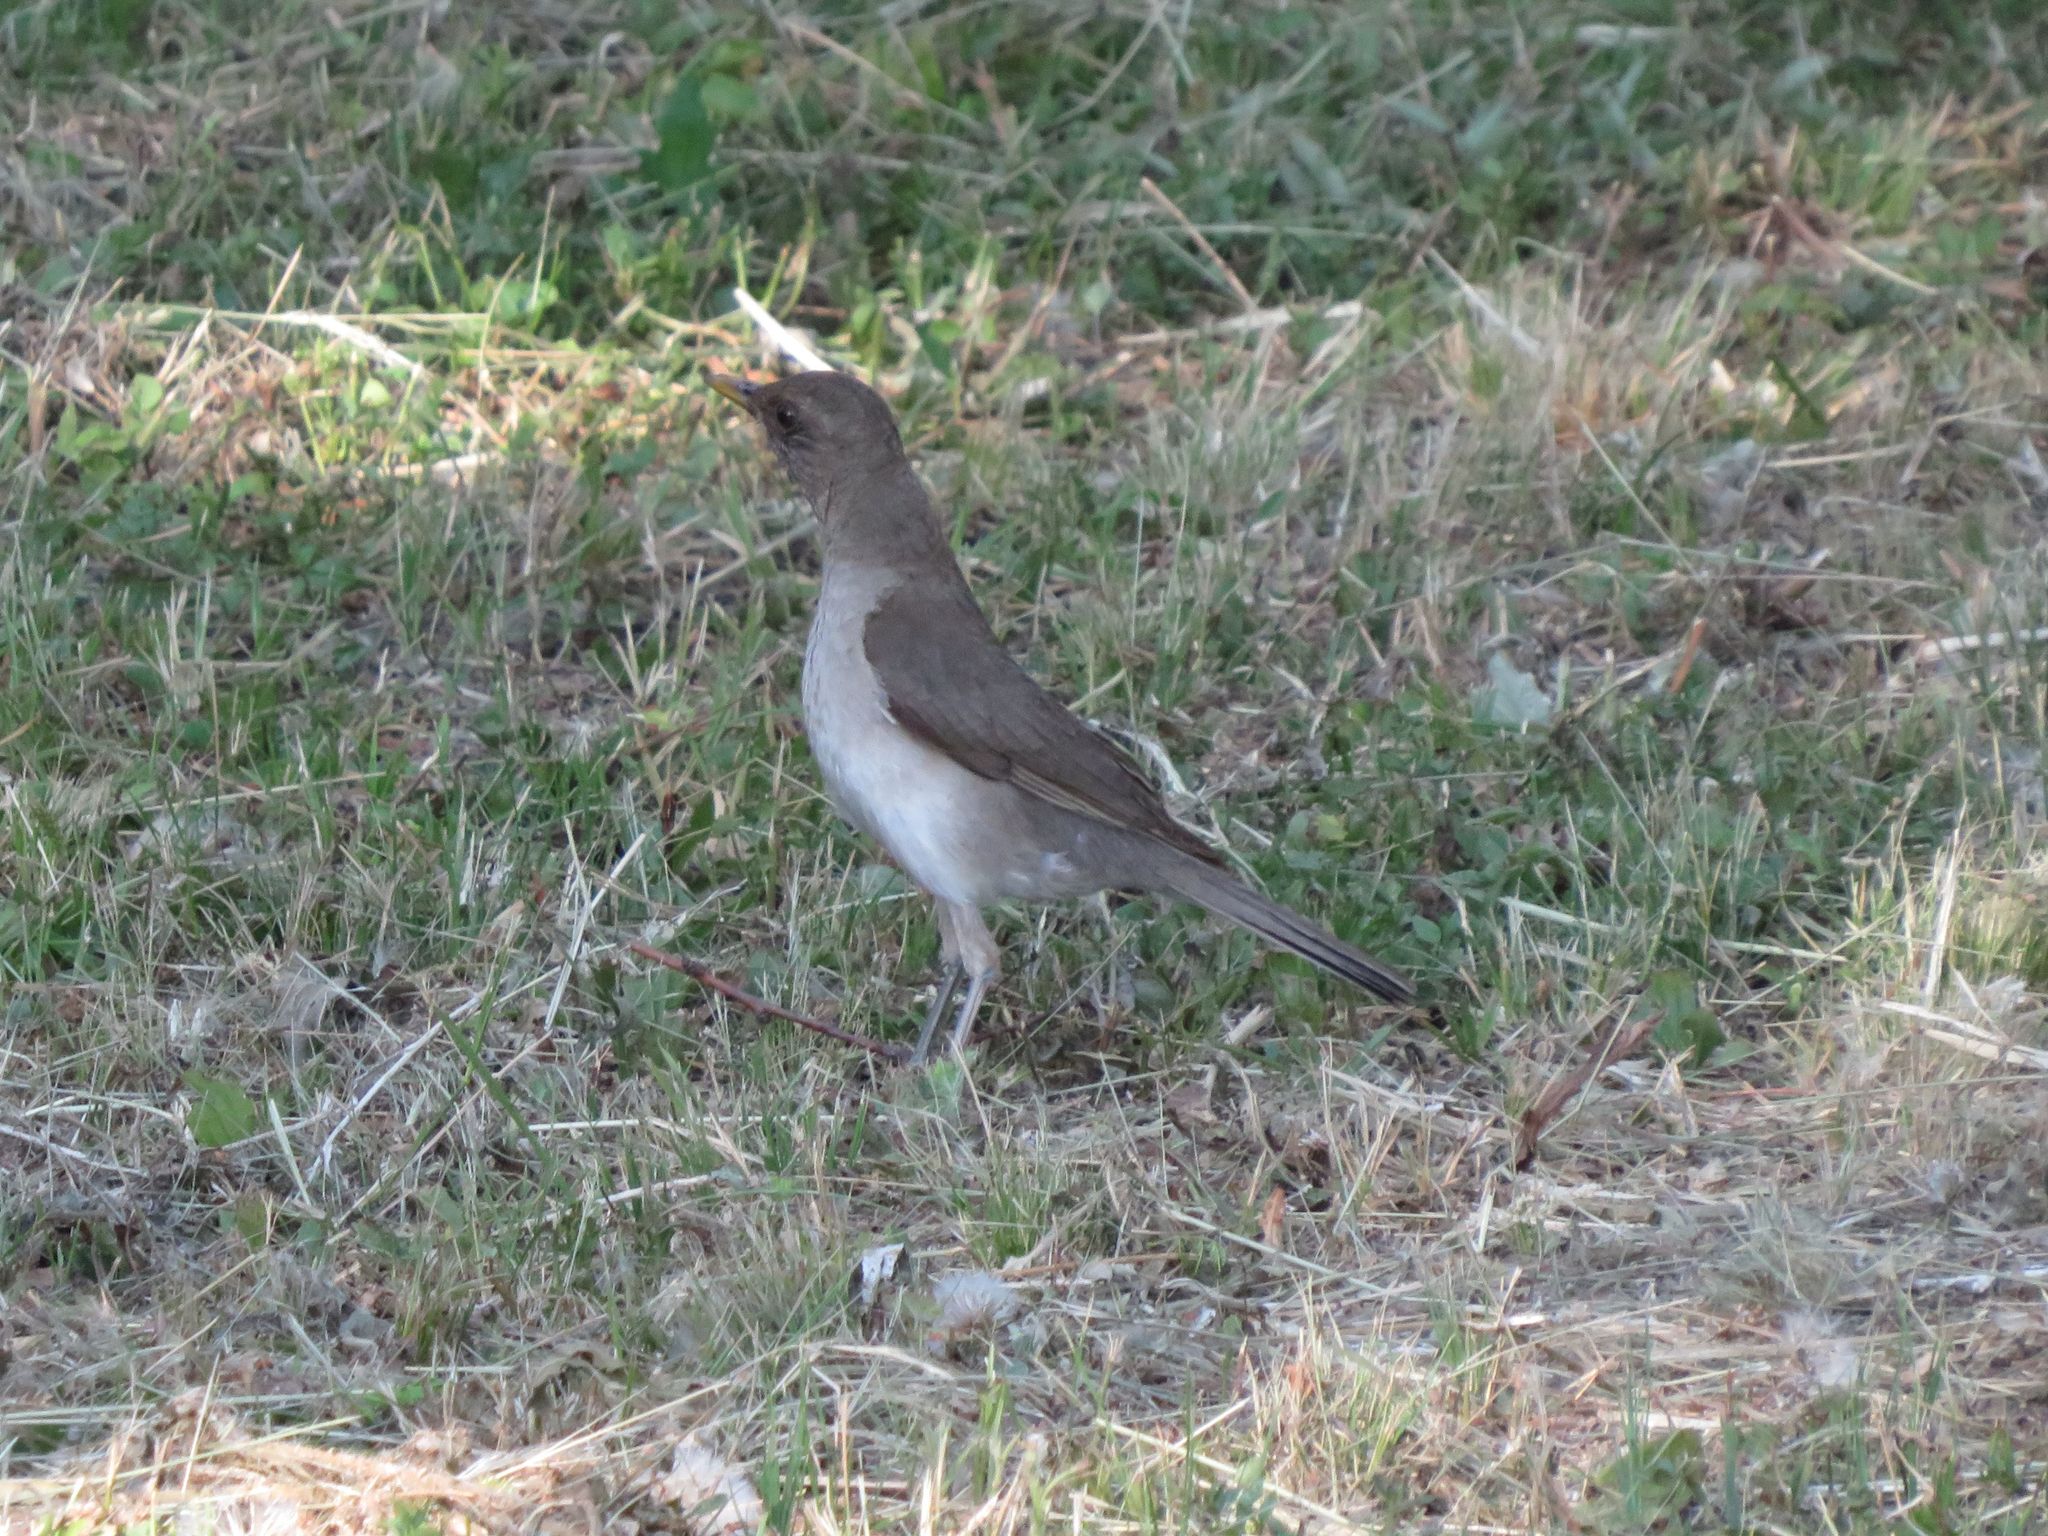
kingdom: Animalia
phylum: Chordata
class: Aves
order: Passeriformes
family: Turdidae
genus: Turdus
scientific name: Turdus amaurochalinus
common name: Creamy-bellied thrush
